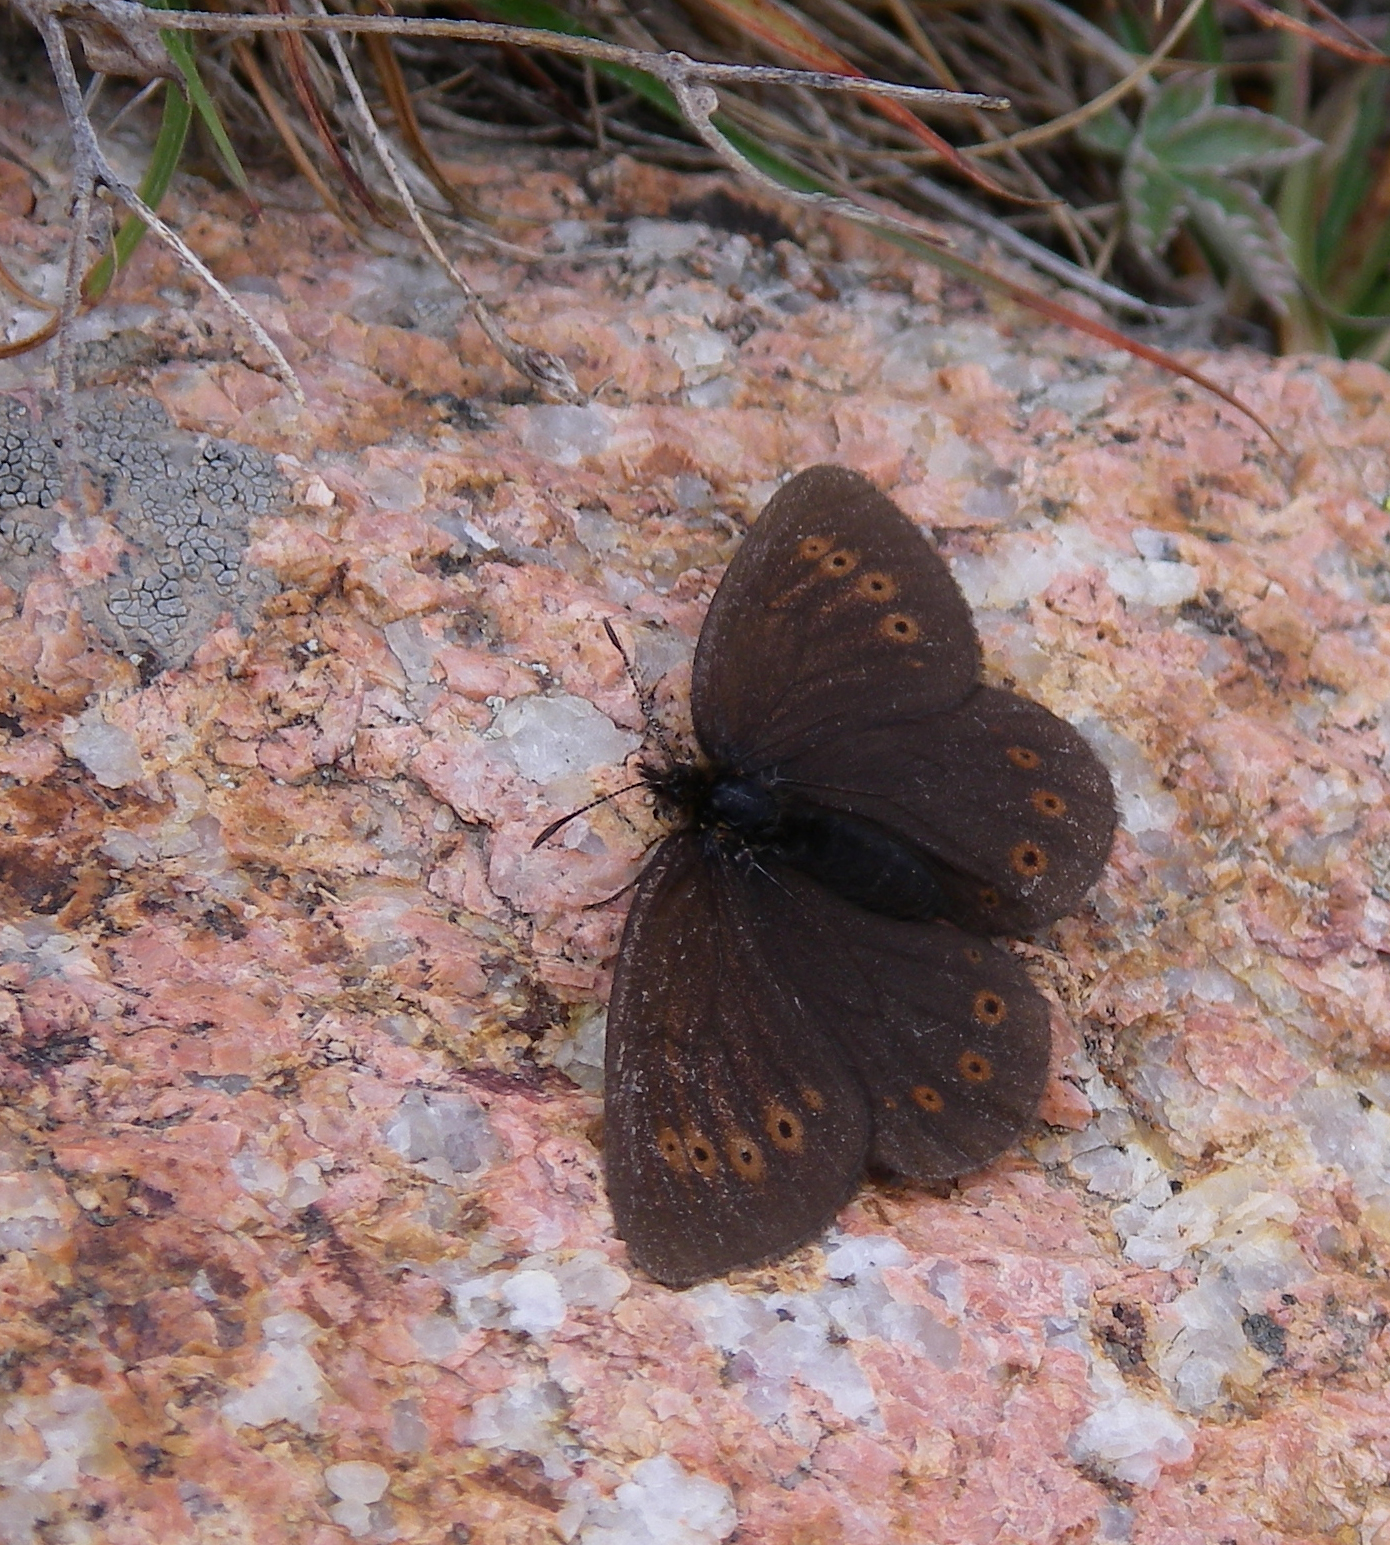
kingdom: Animalia
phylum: Arthropoda
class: Insecta
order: Lepidoptera
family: Nymphalidae
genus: Erebia
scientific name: Erebia meta
